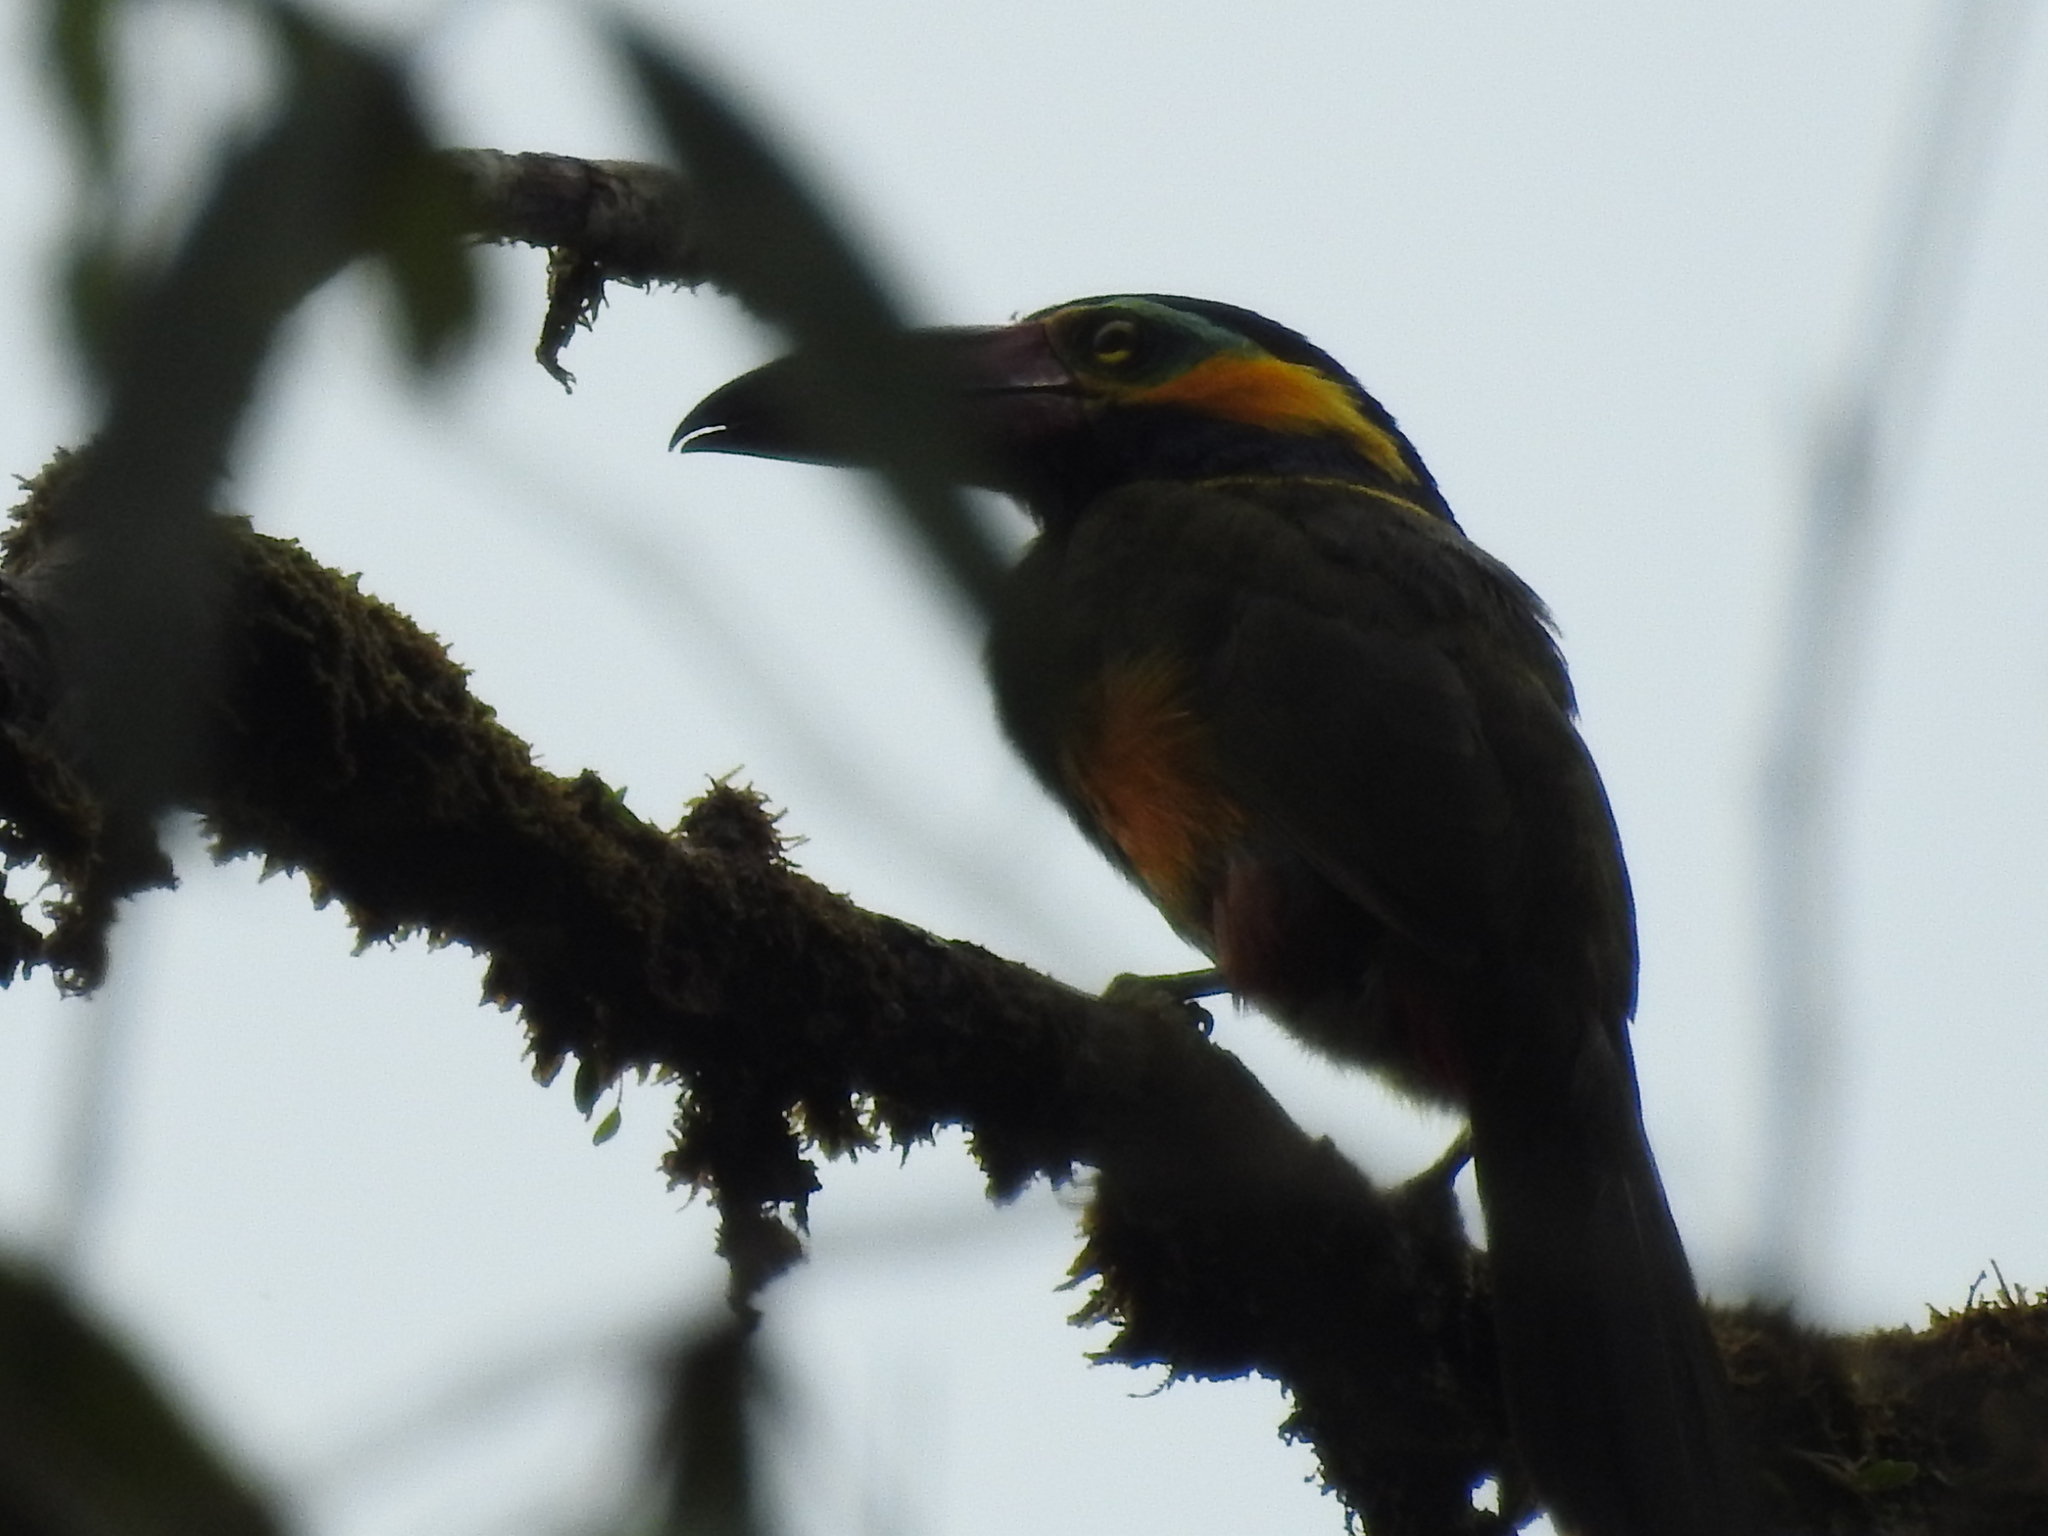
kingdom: Animalia
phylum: Chordata
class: Aves
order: Piciformes
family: Ramphastidae
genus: Selenidera
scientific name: Selenidera reinwardtii
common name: Golden-collared toucanet
